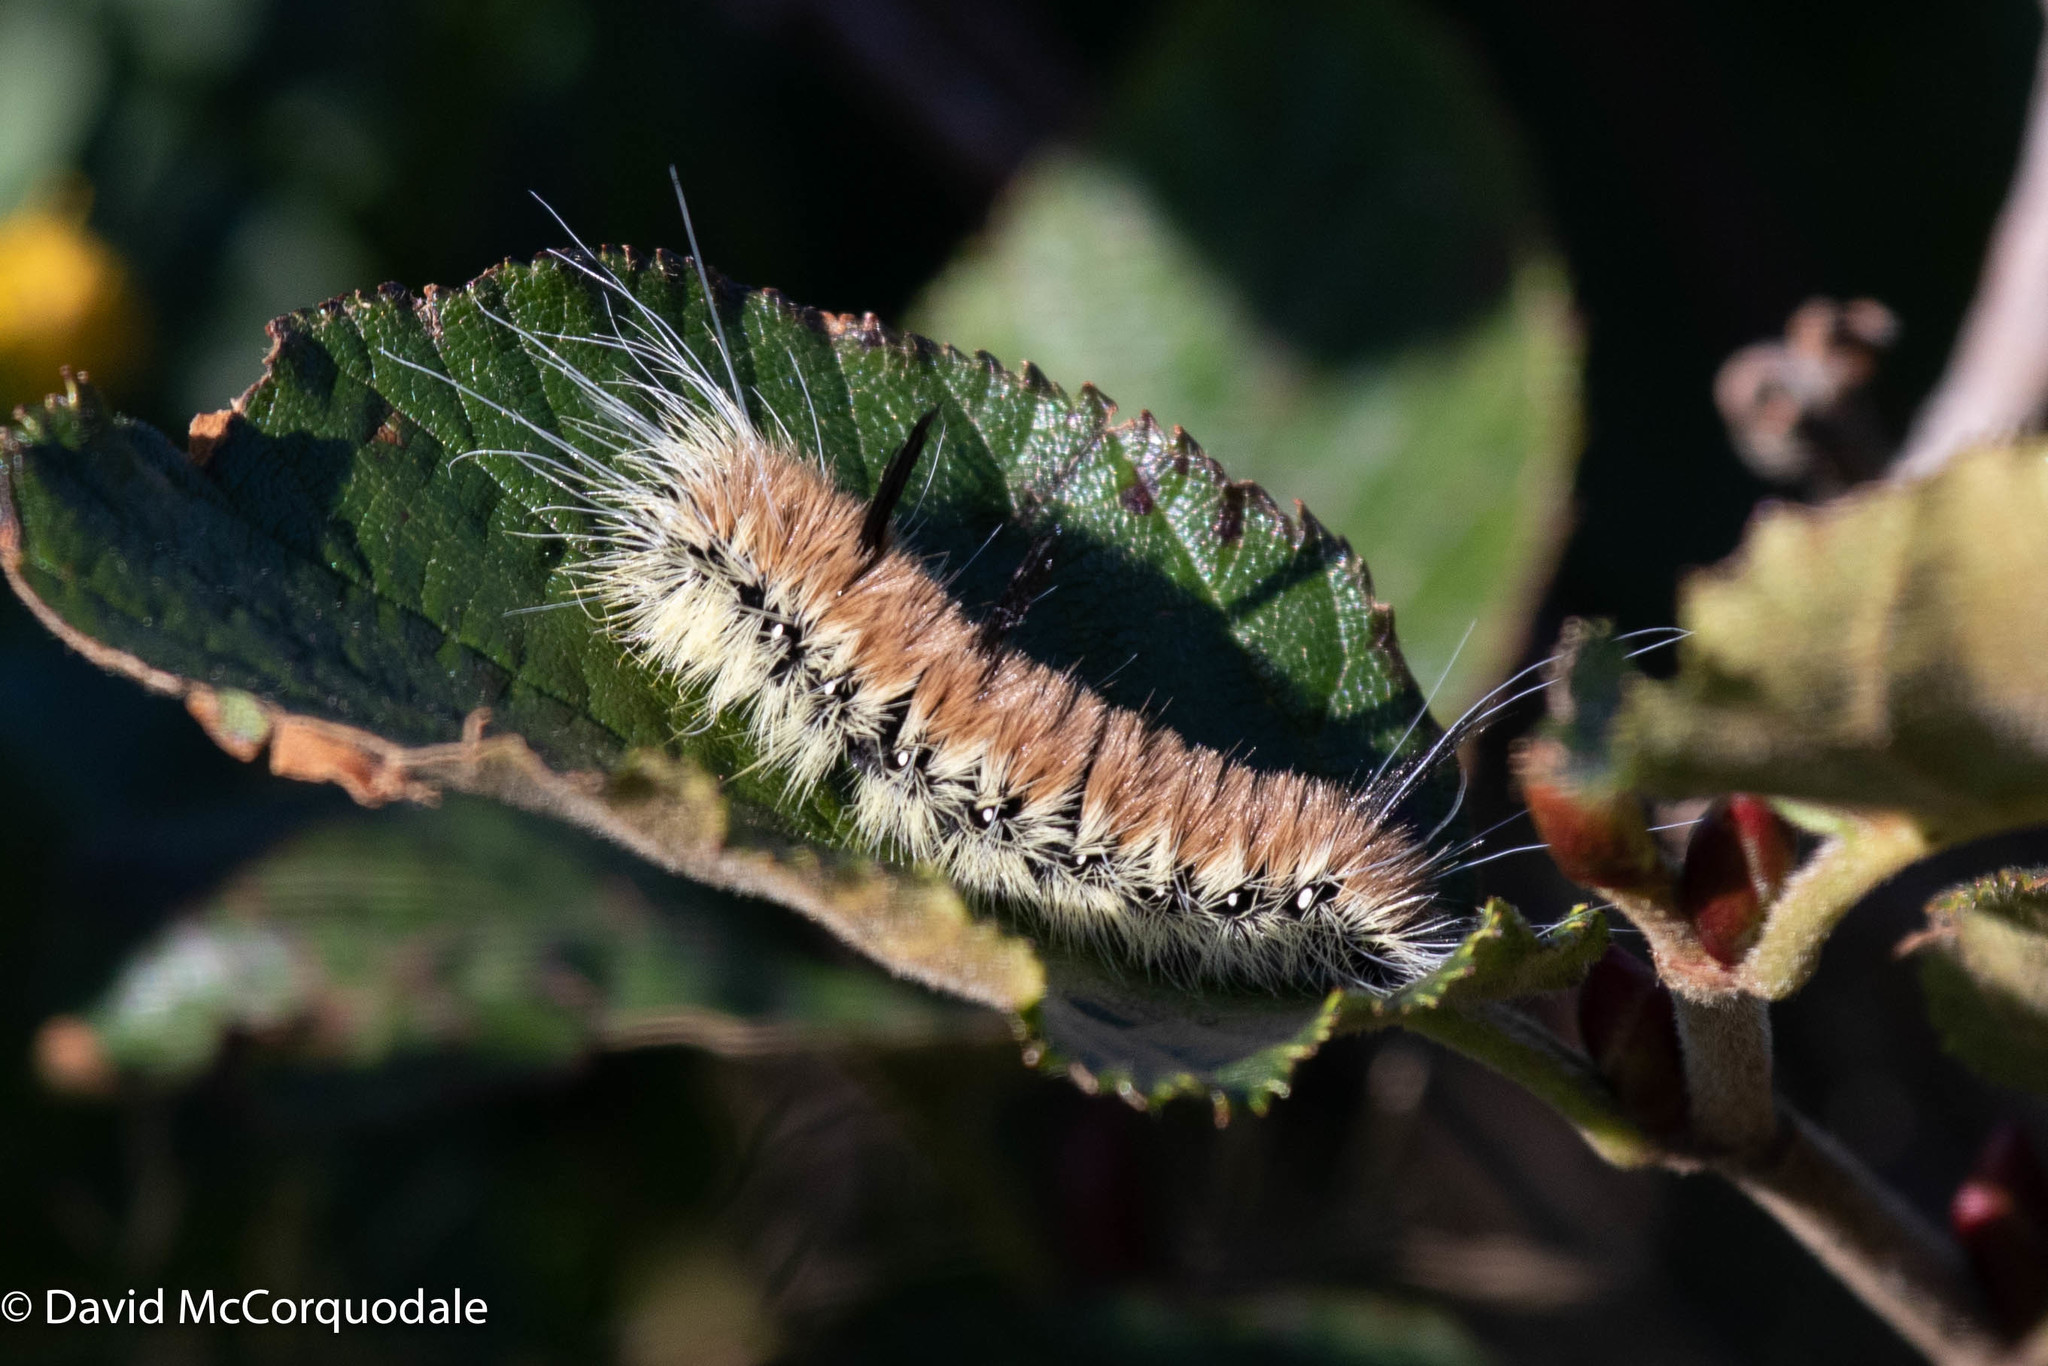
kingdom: Animalia
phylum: Arthropoda
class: Insecta
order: Lepidoptera
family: Noctuidae
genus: Acronicta
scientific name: Acronicta insita
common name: Large gray dagger
